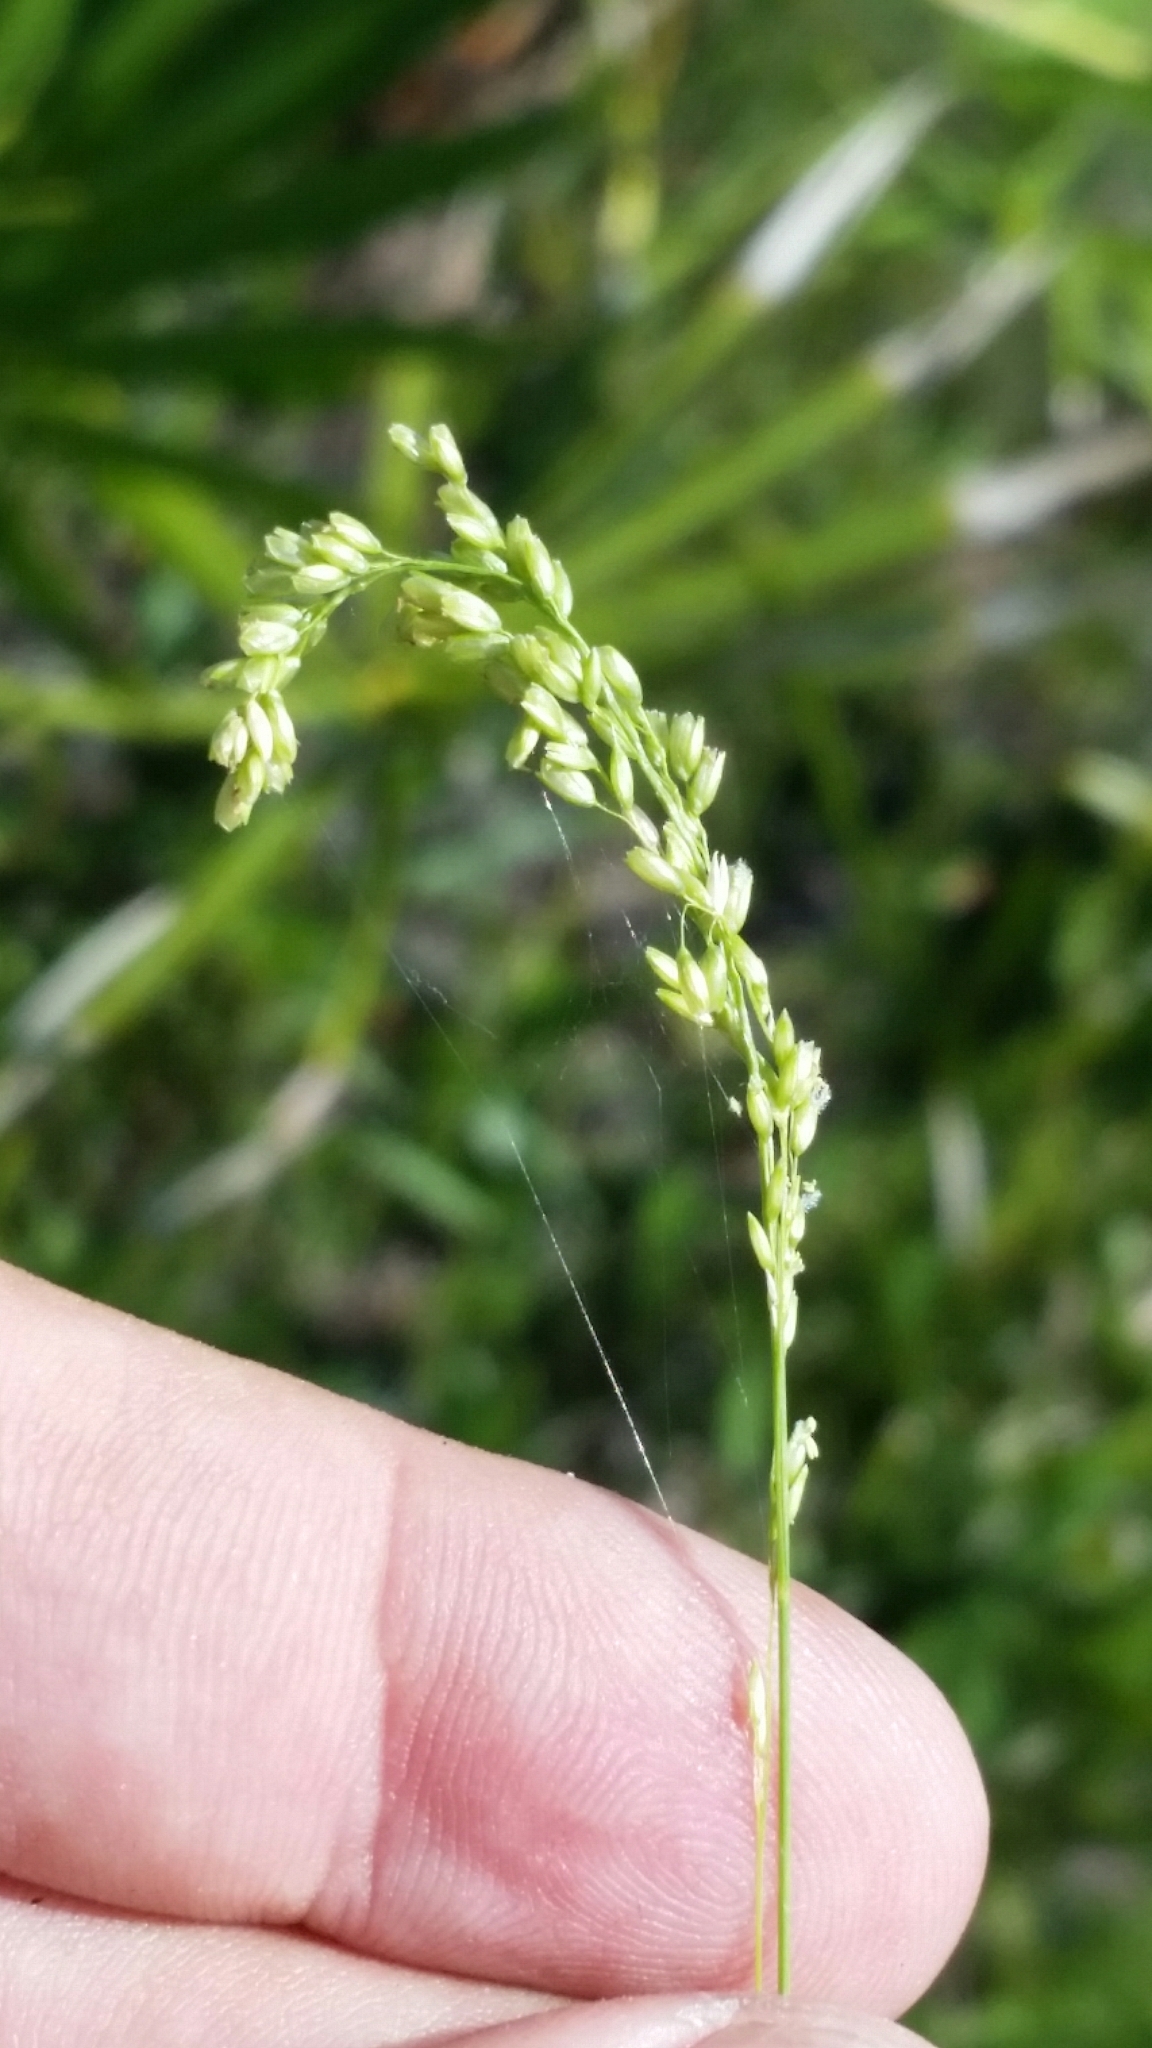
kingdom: Plantae
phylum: Tracheophyta
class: Liliopsida
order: Poales
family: Poaceae
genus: Steinchisma
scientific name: Steinchisma hians
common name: Gaping panic grass
